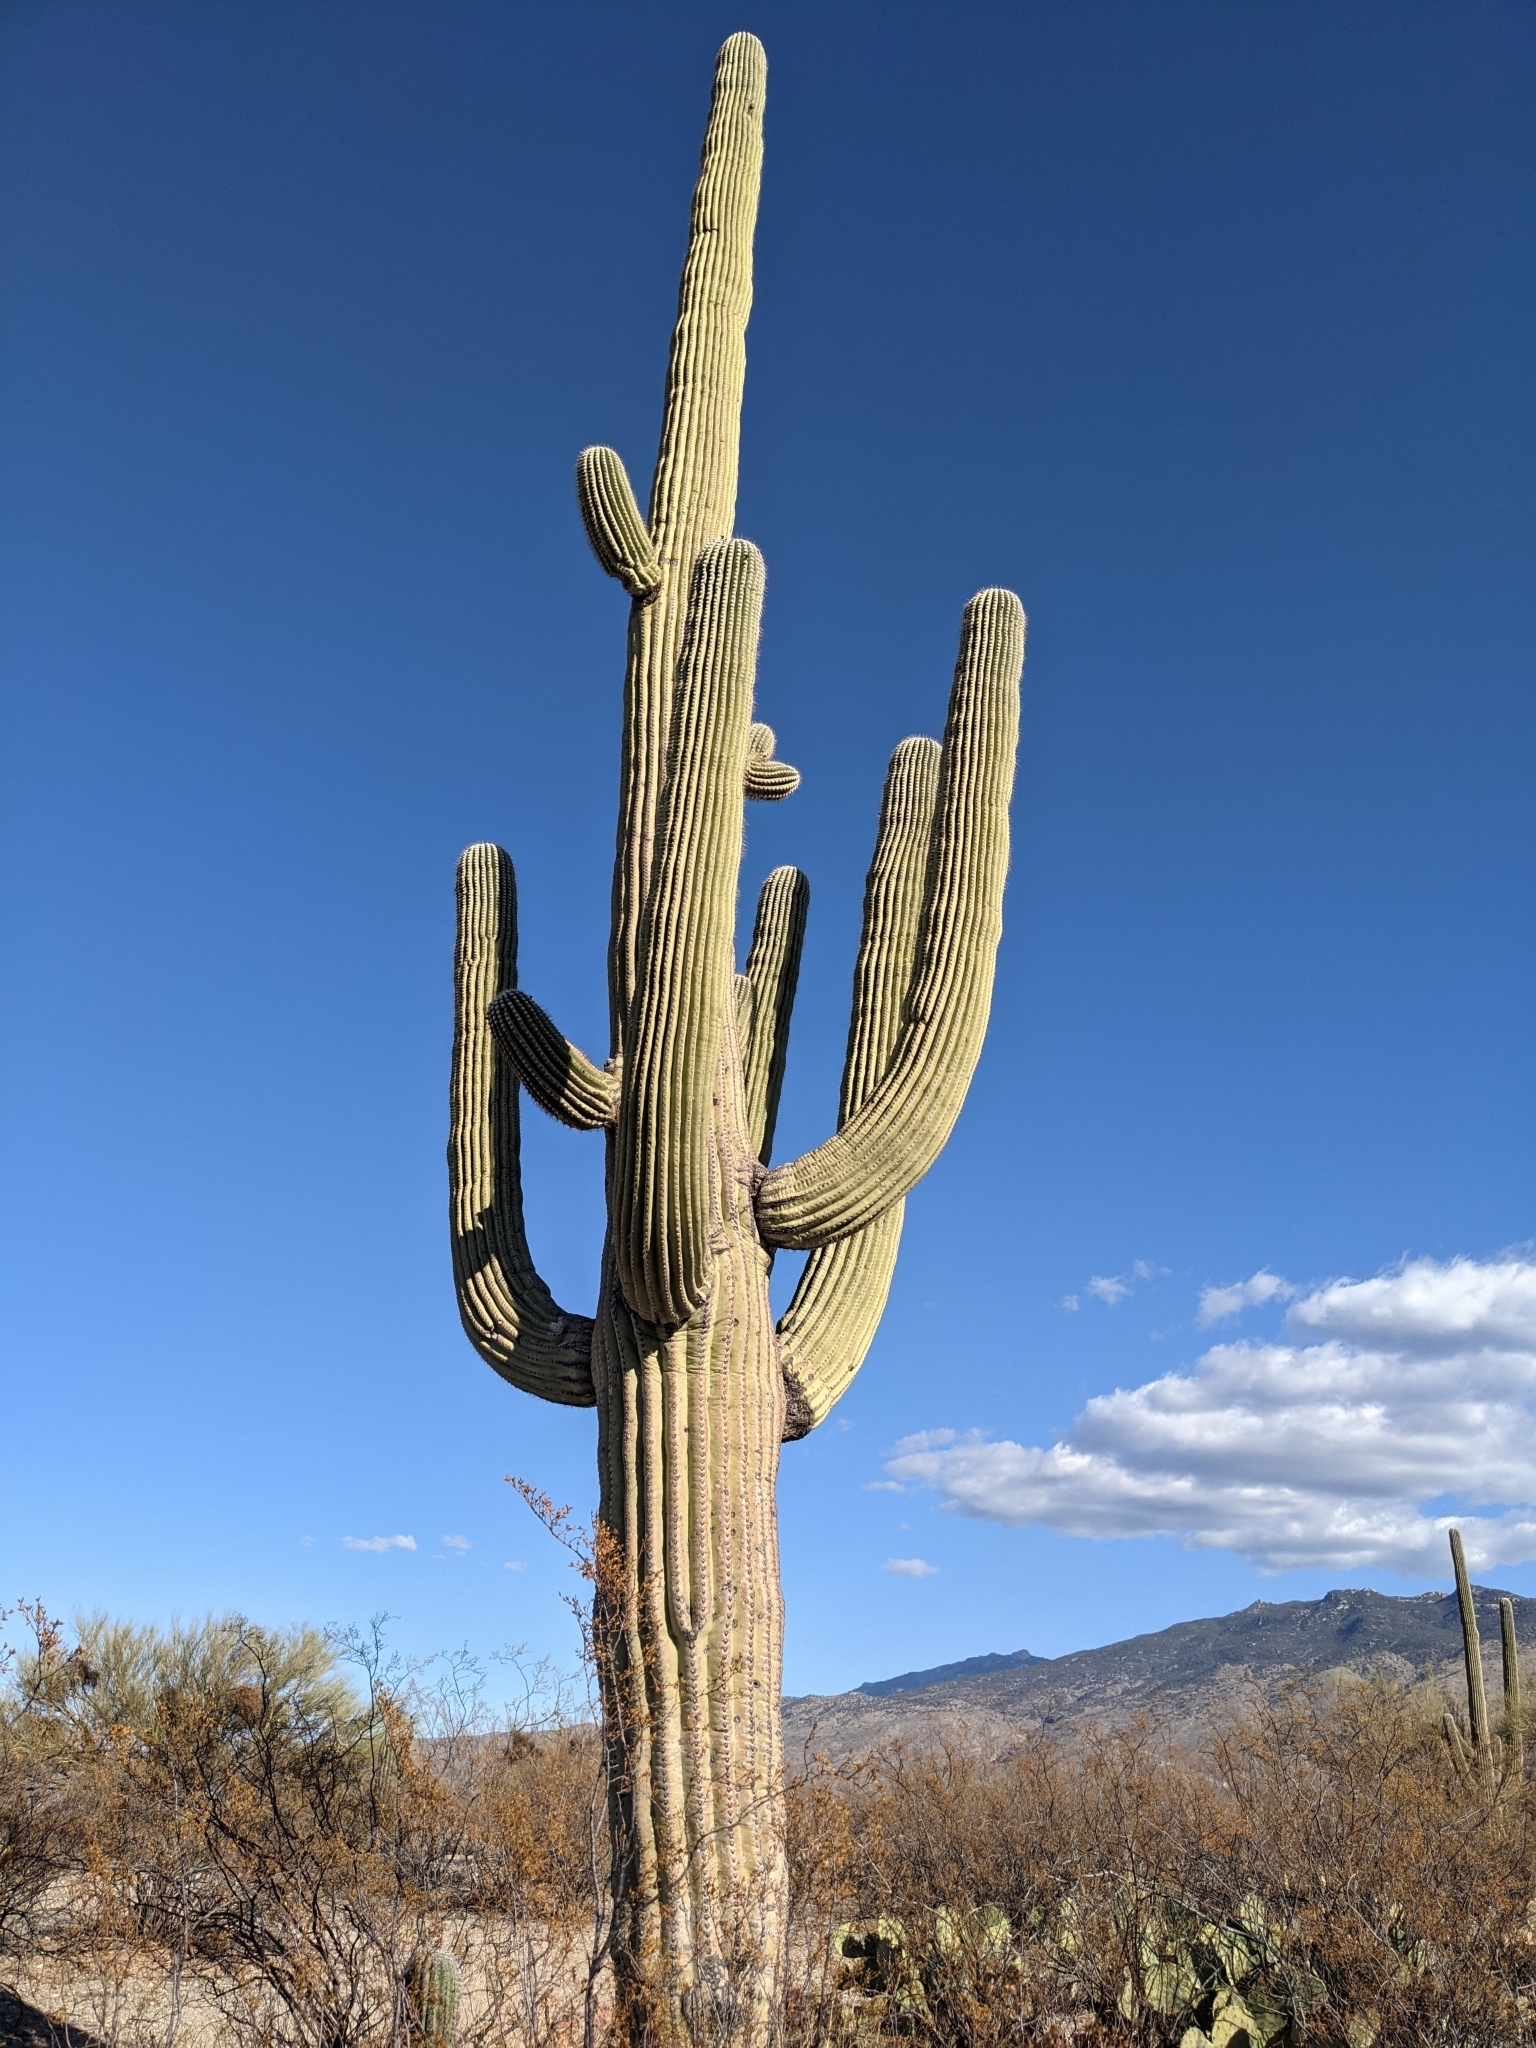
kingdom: Plantae
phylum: Tracheophyta
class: Magnoliopsida
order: Caryophyllales
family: Cactaceae
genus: Carnegiea
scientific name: Carnegiea gigantea
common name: Saguaro
